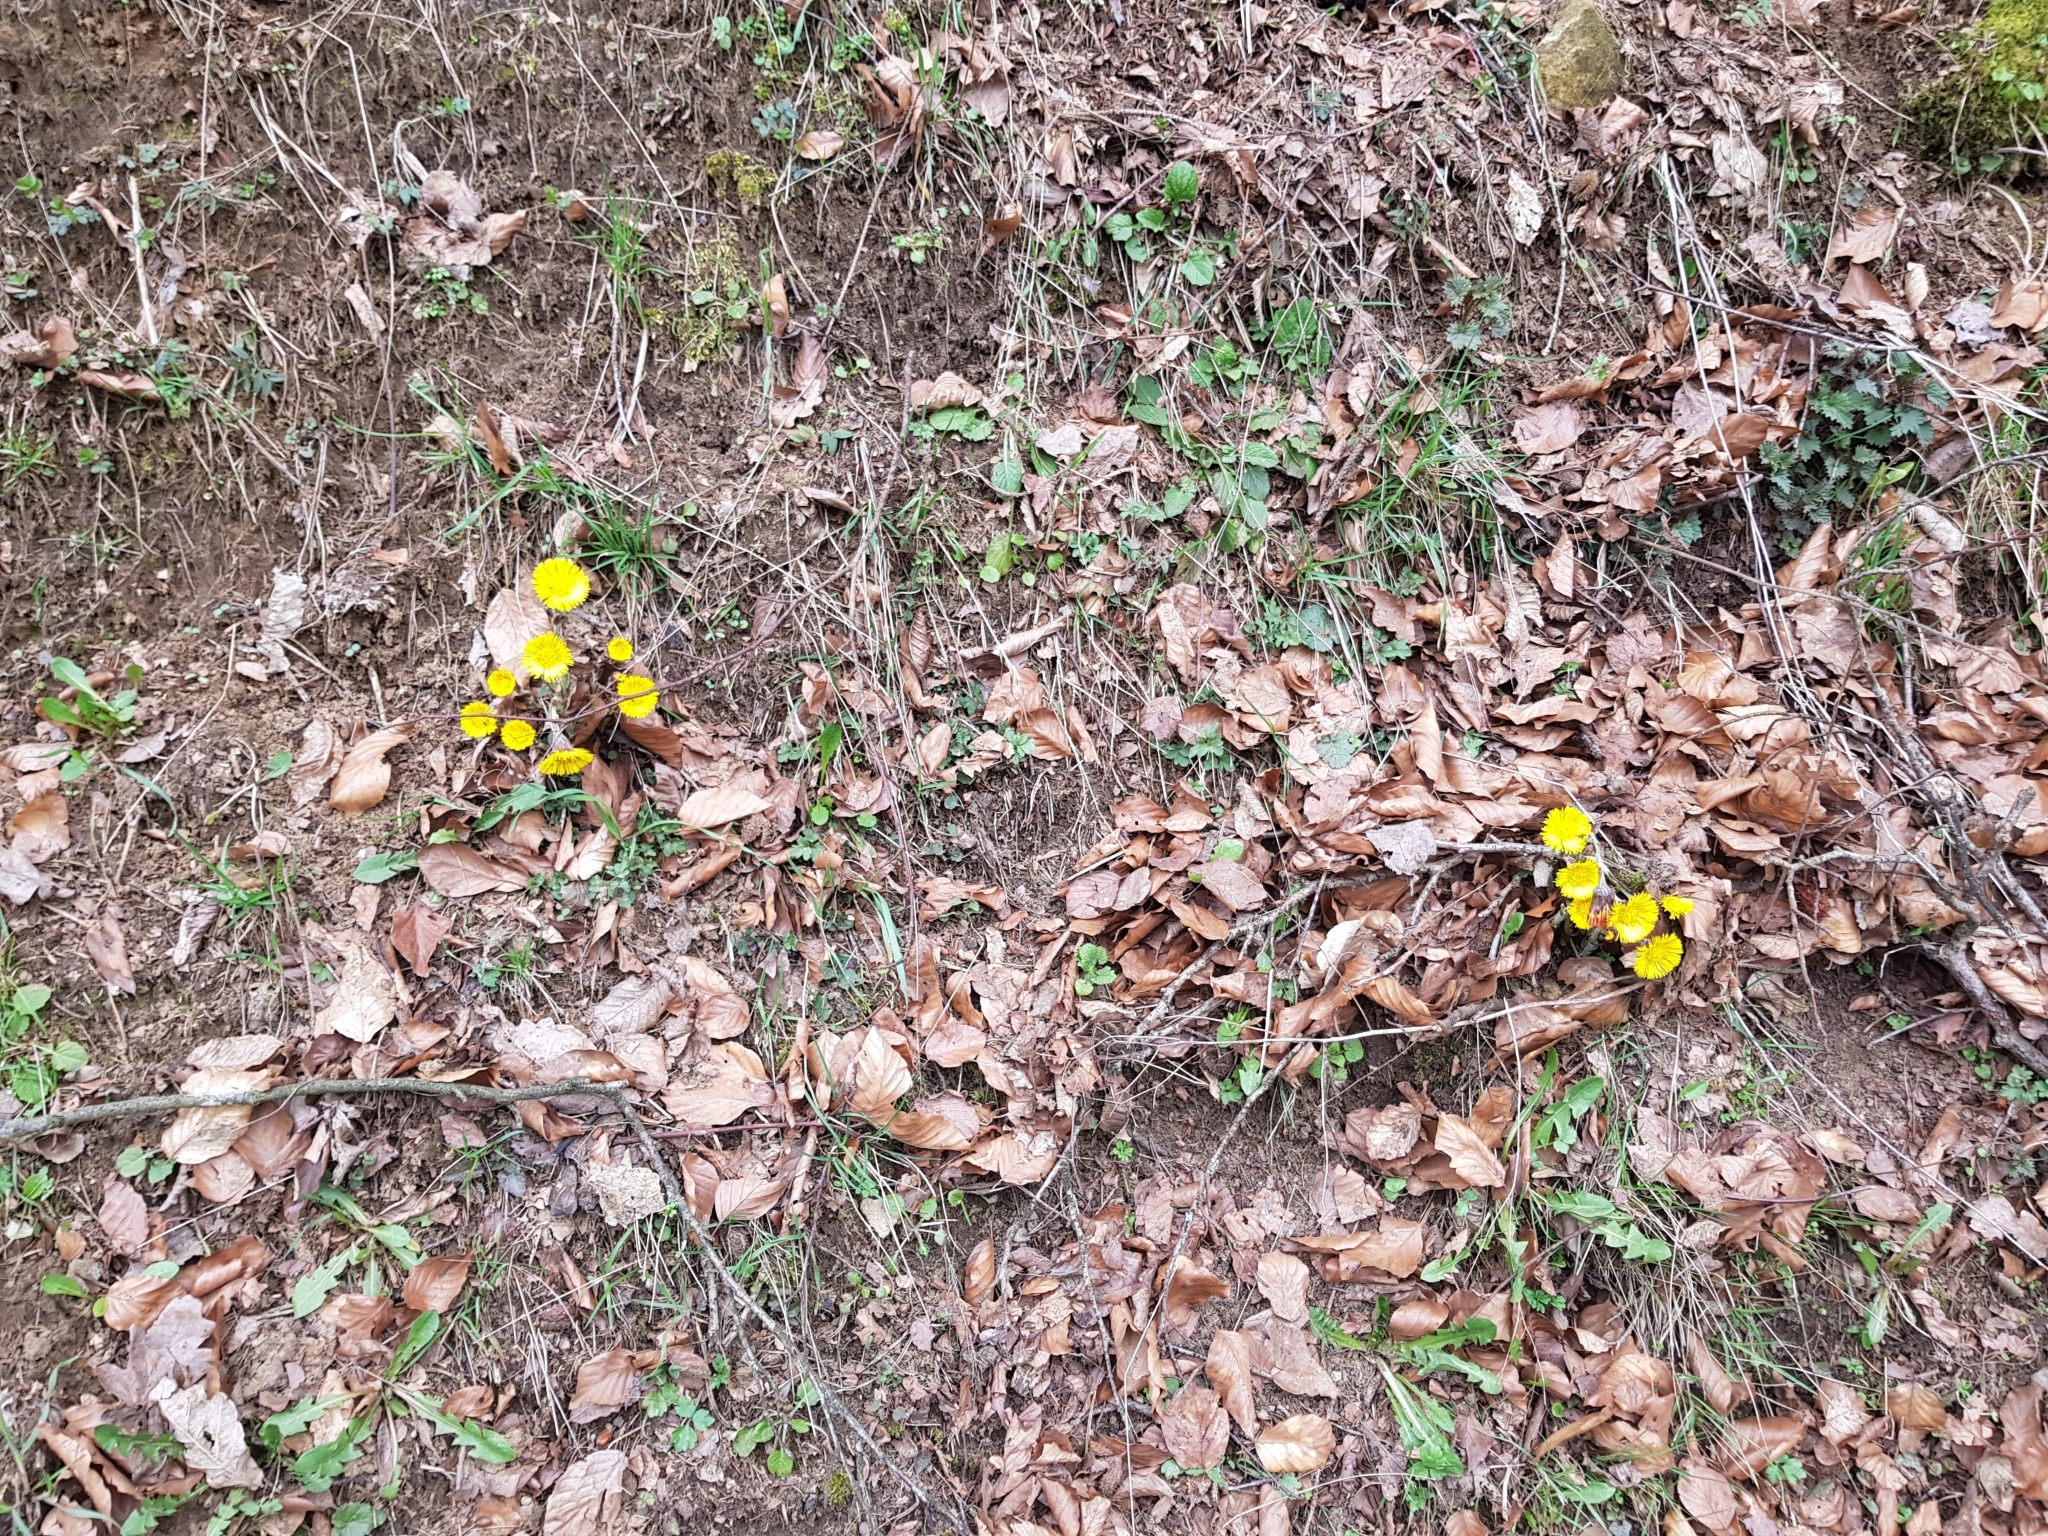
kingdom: Plantae
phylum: Tracheophyta
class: Magnoliopsida
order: Asterales
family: Asteraceae
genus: Tussilago
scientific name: Tussilago farfara
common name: Coltsfoot
